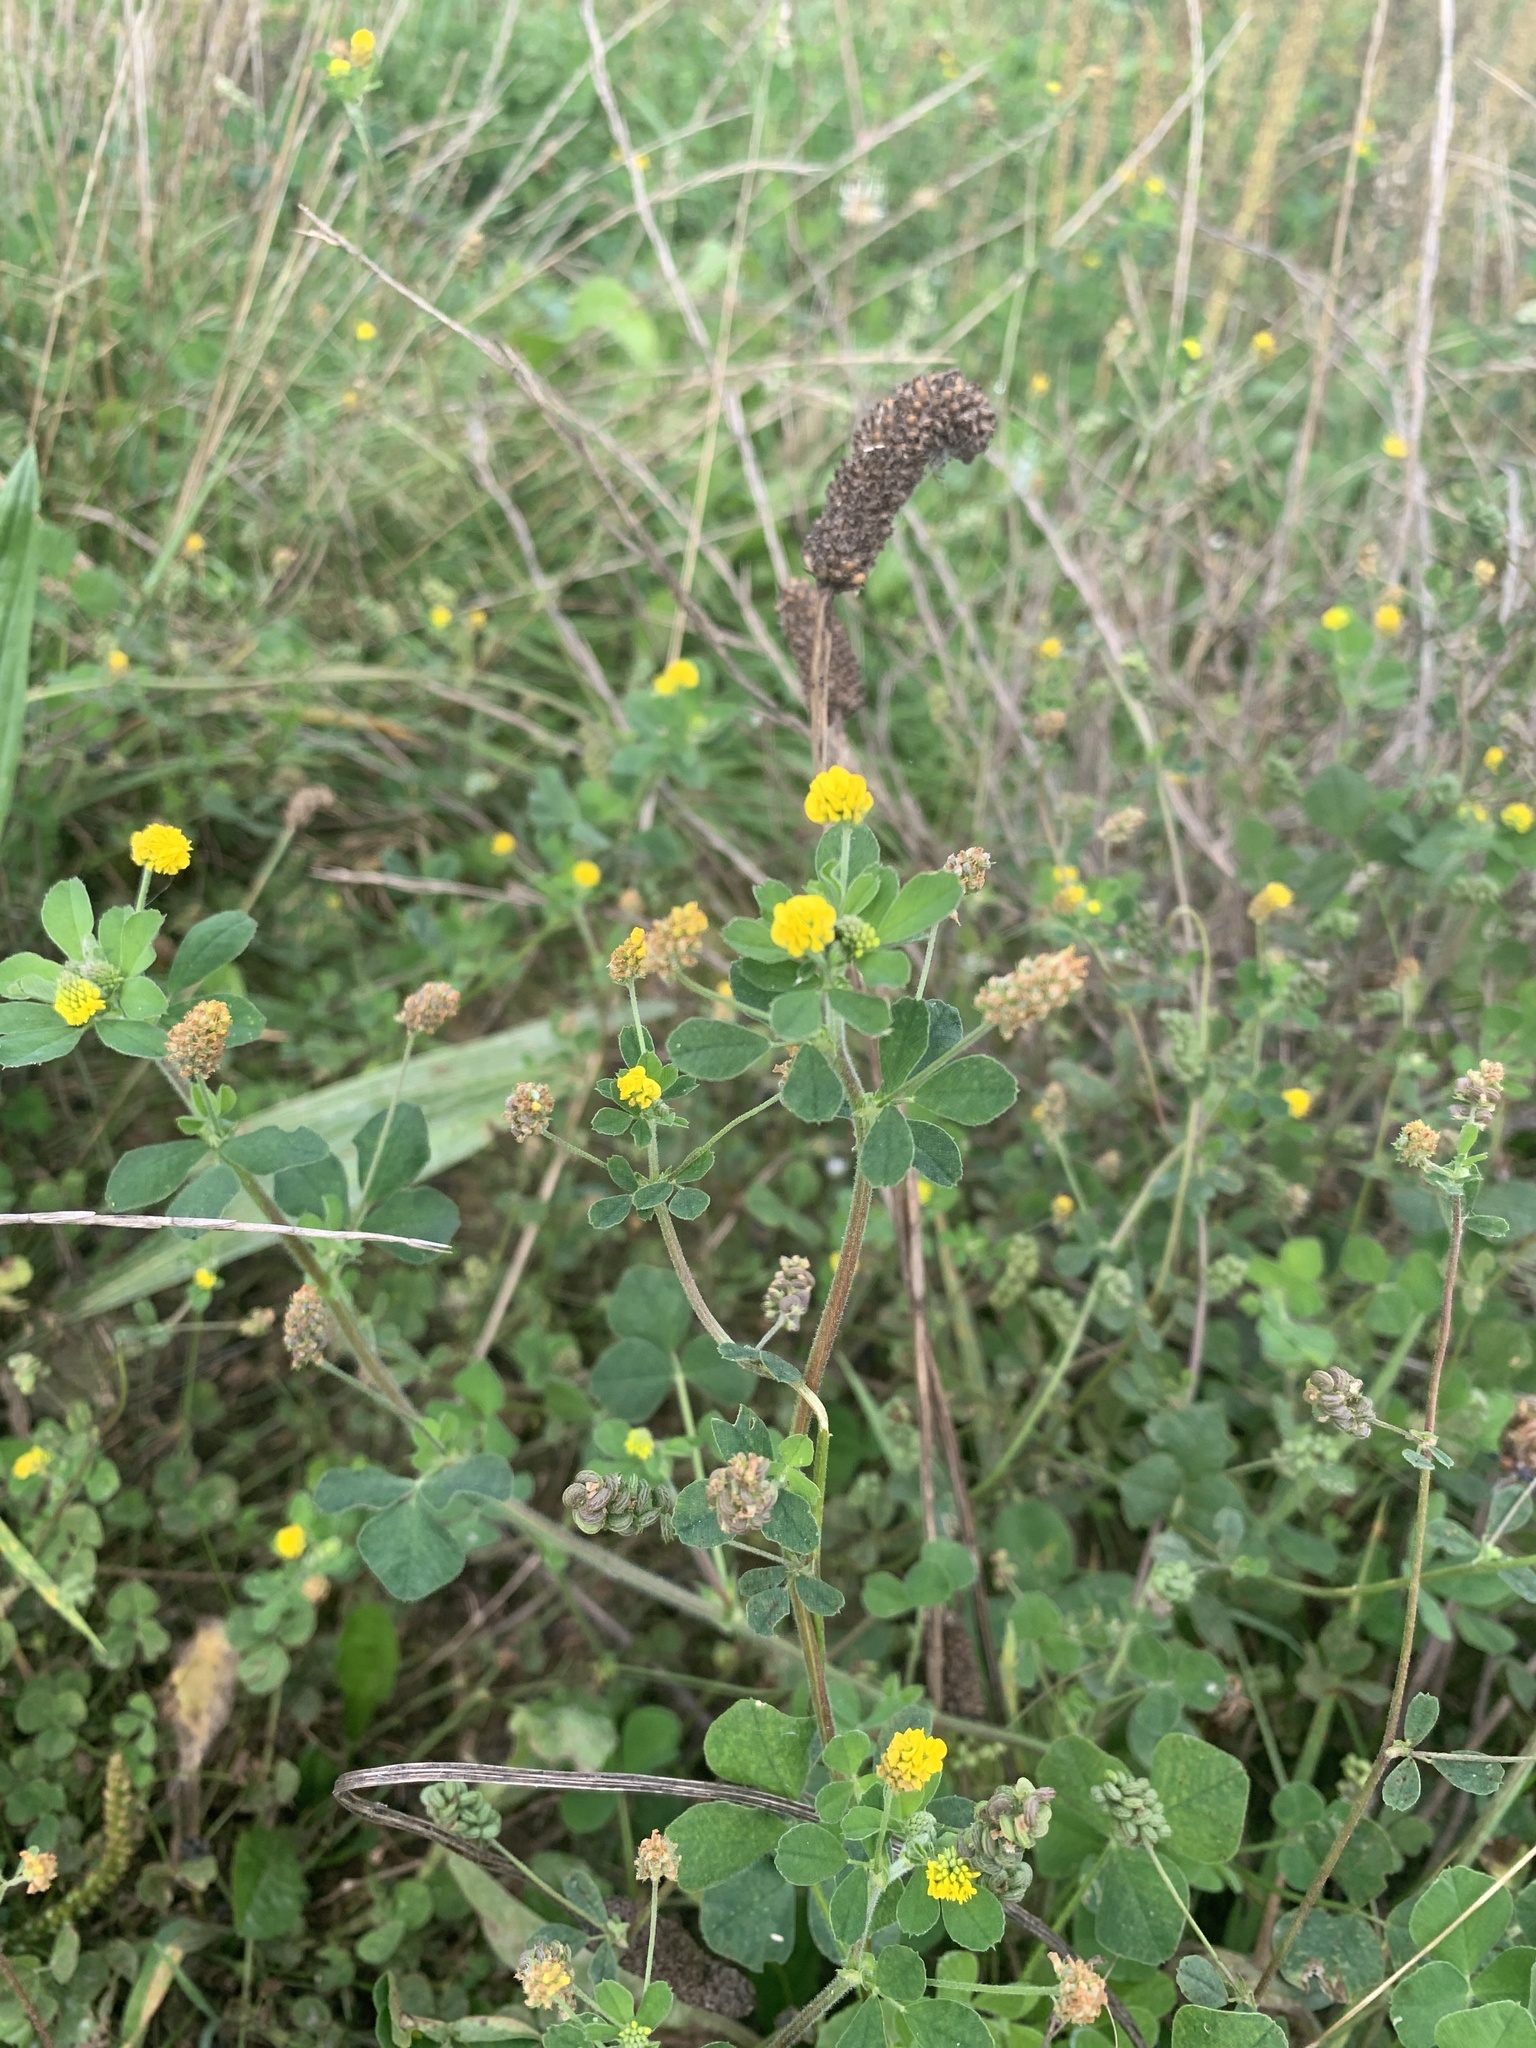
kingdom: Plantae
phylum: Tracheophyta
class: Magnoliopsida
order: Fabales
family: Fabaceae
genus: Medicago
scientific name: Medicago lupulina
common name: Black medick
